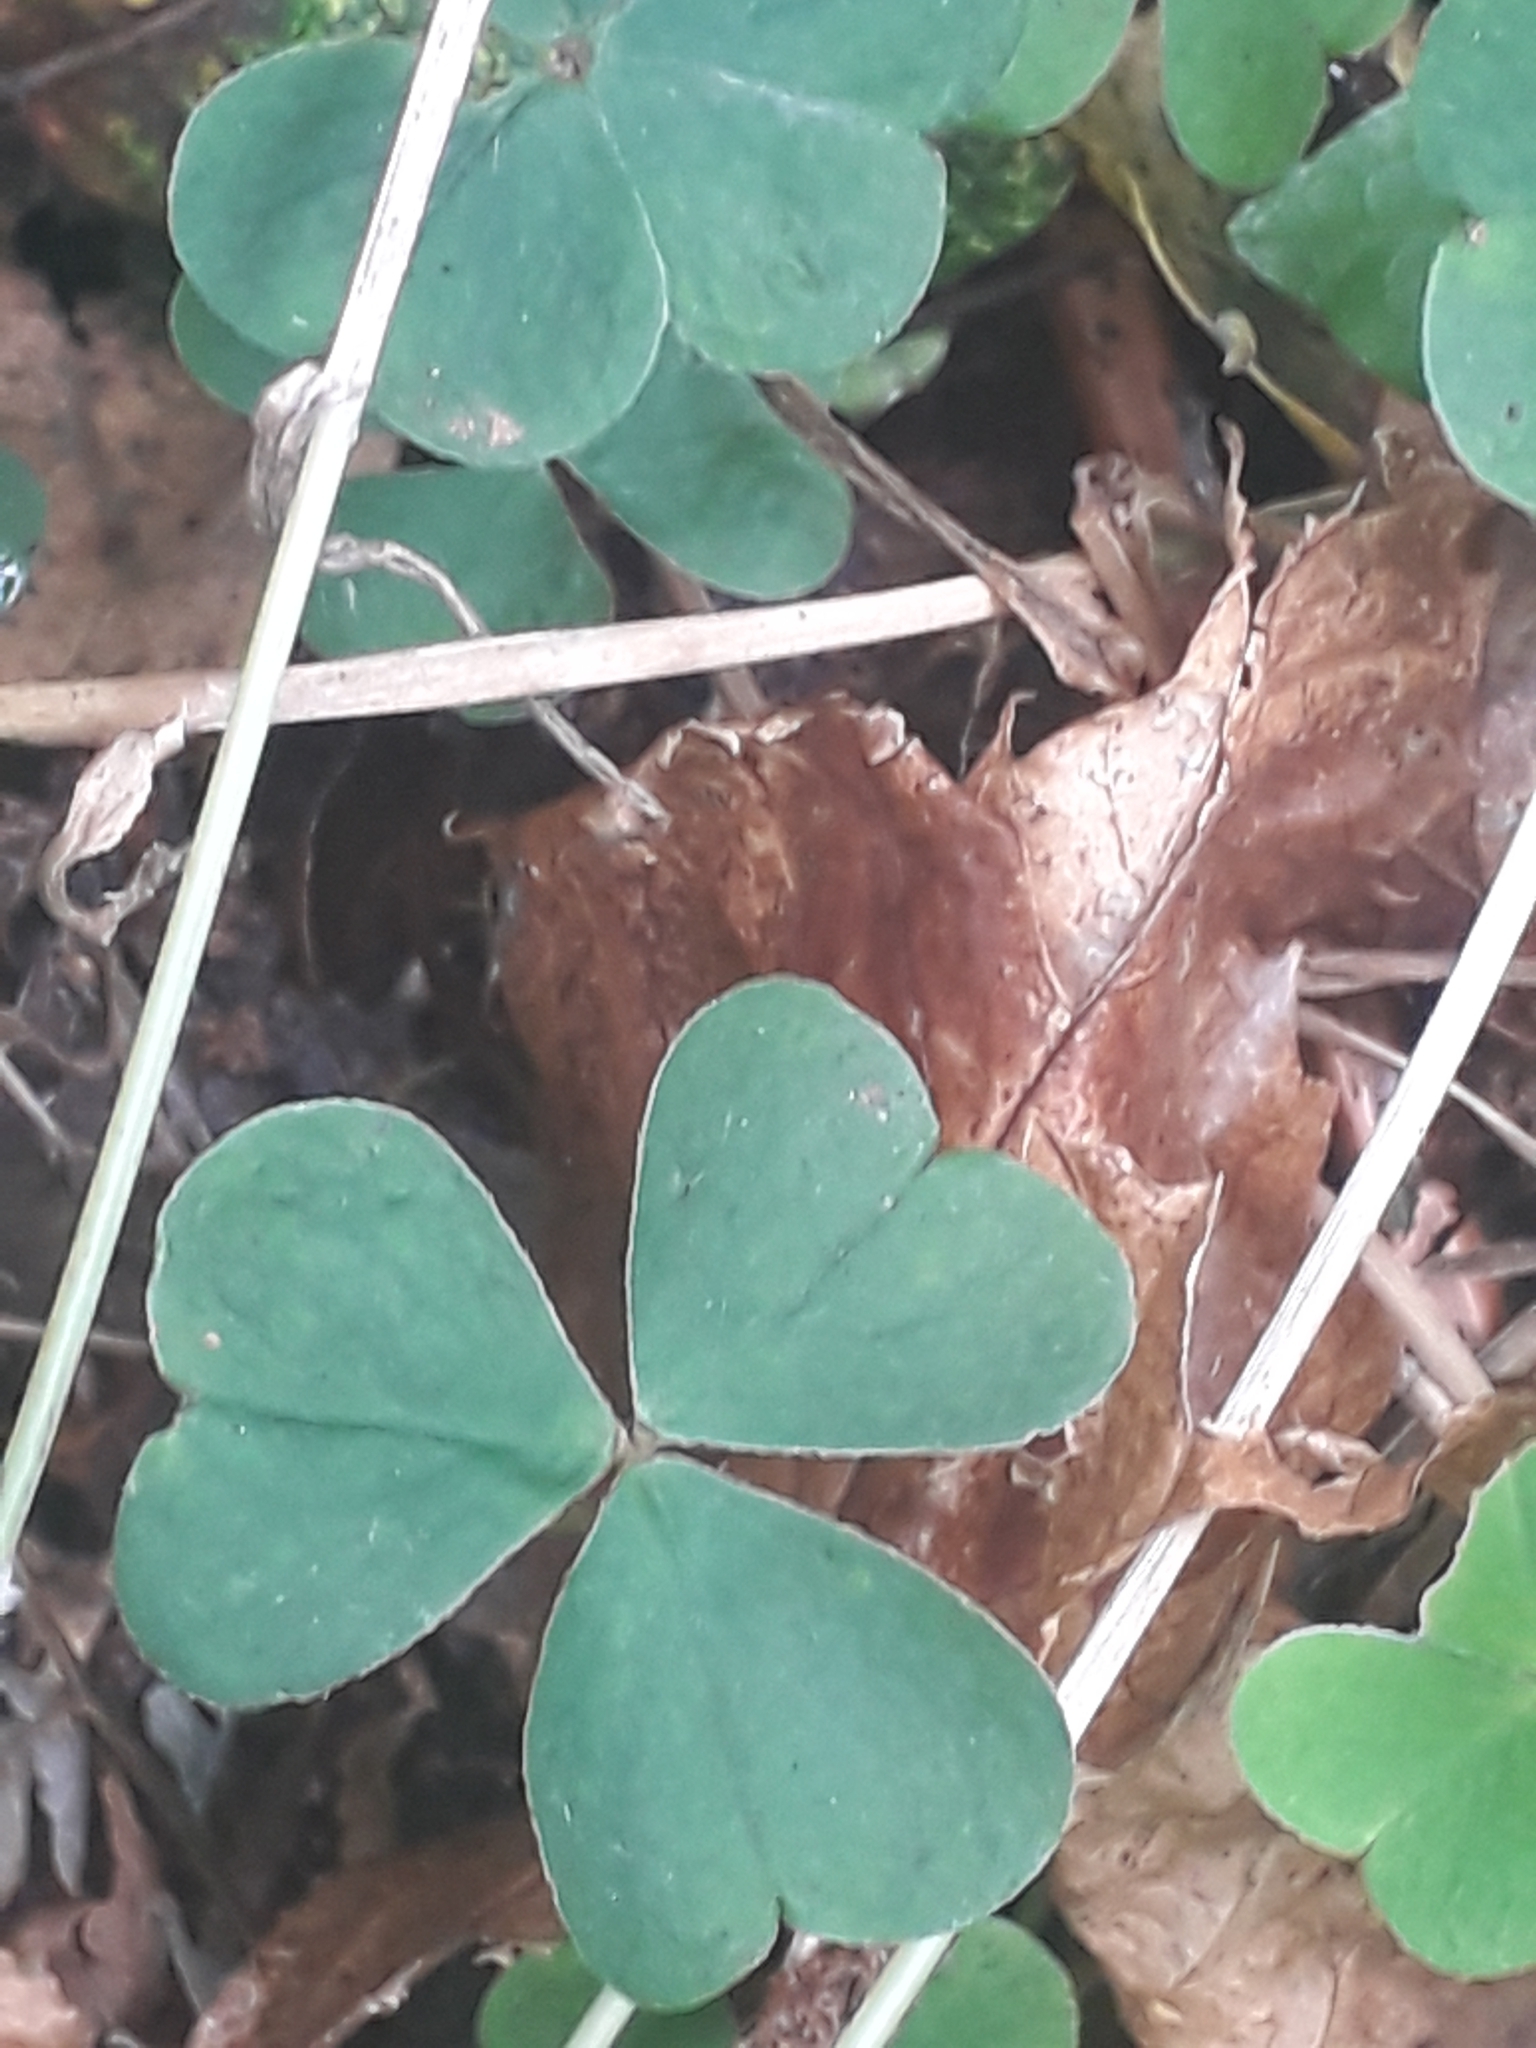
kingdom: Plantae
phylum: Tracheophyta
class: Magnoliopsida
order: Oxalidales
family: Oxalidaceae
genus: Oxalis
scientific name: Oxalis acetosella
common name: Wood-sorrel
